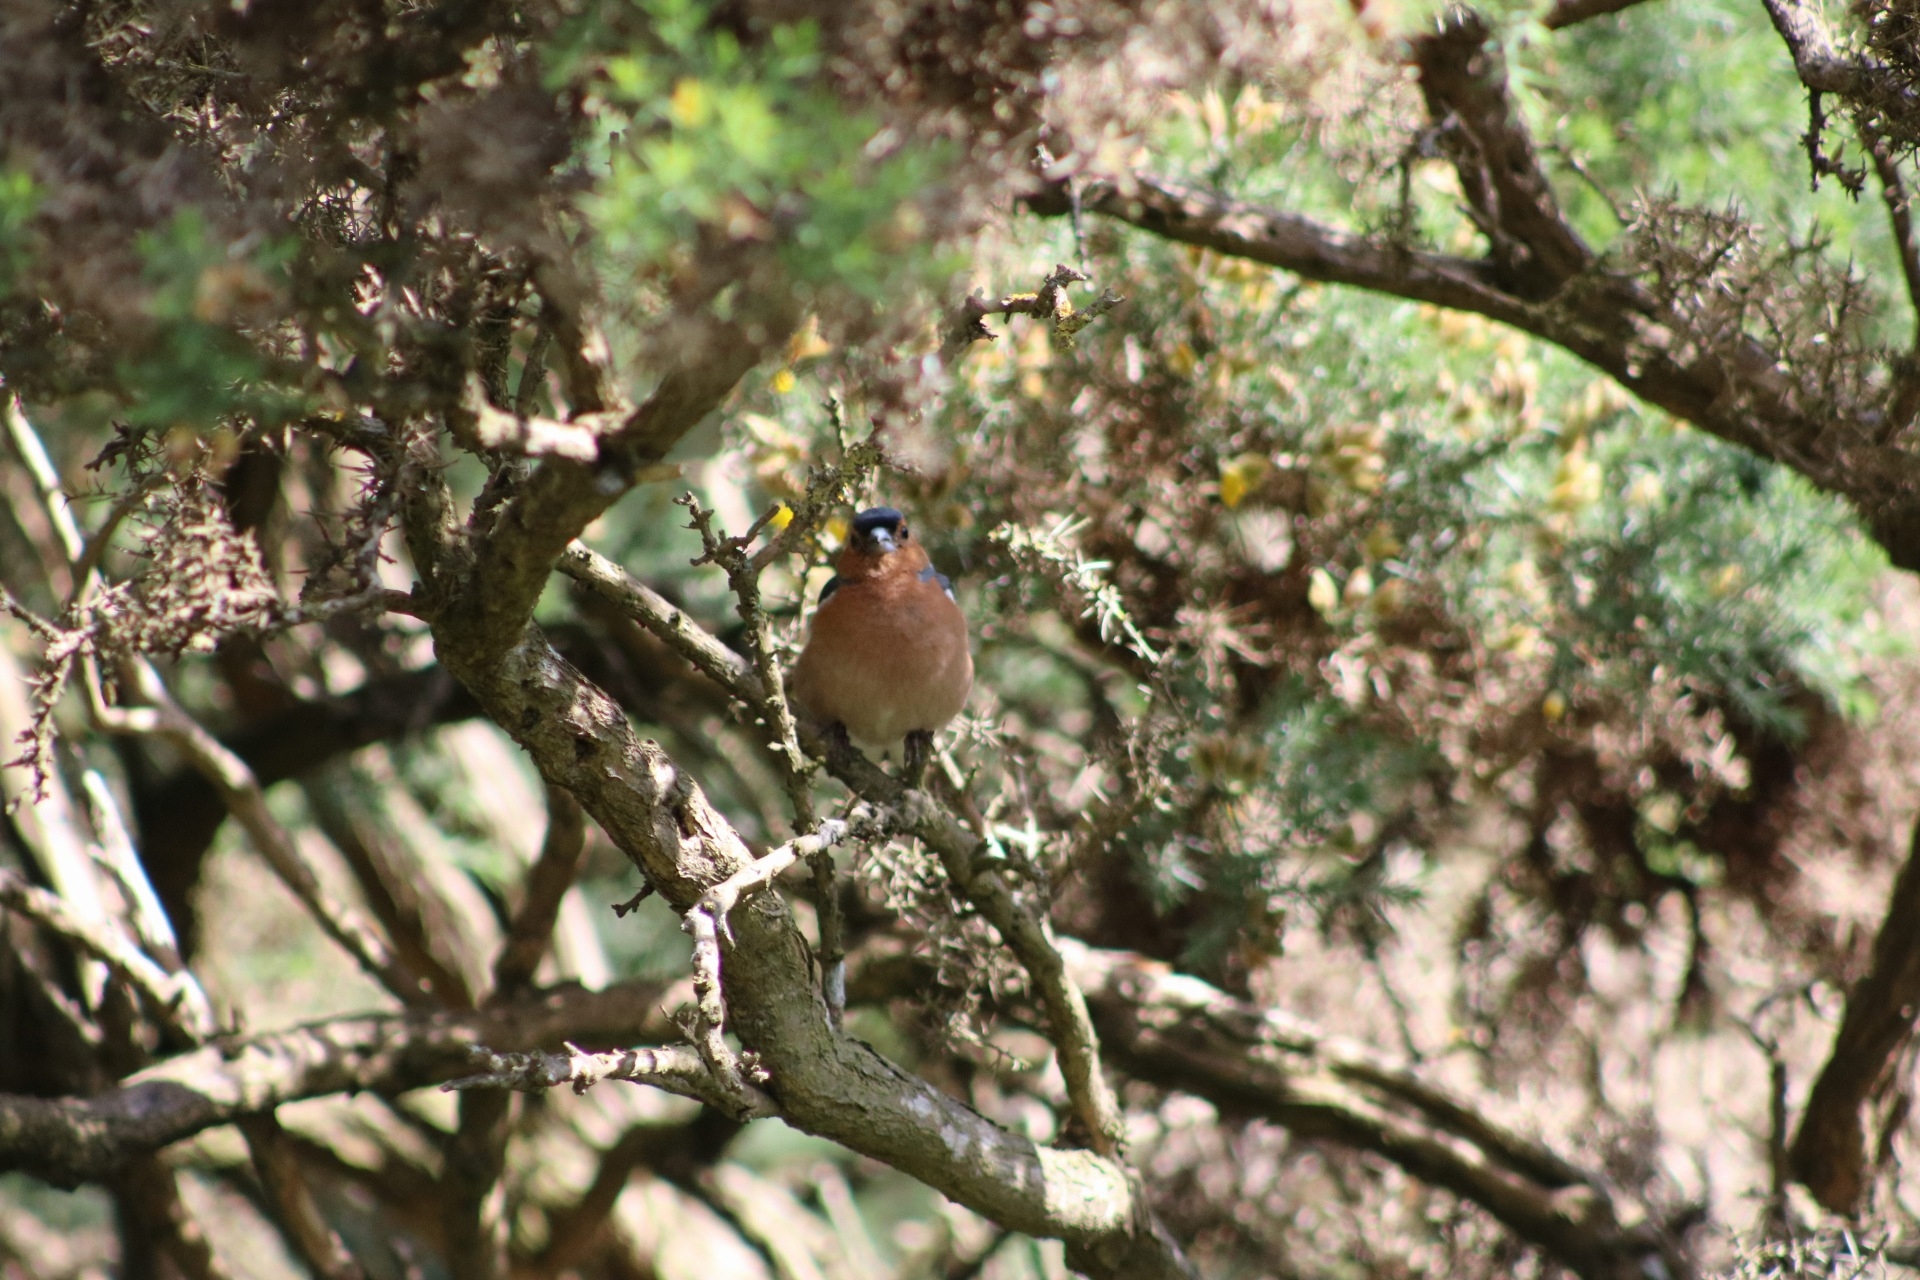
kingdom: Animalia
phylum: Chordata
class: Aves
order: Passeriformes
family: Fringillidae
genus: Fringilla
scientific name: Fringilla coelebs
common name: Common chaffinch
